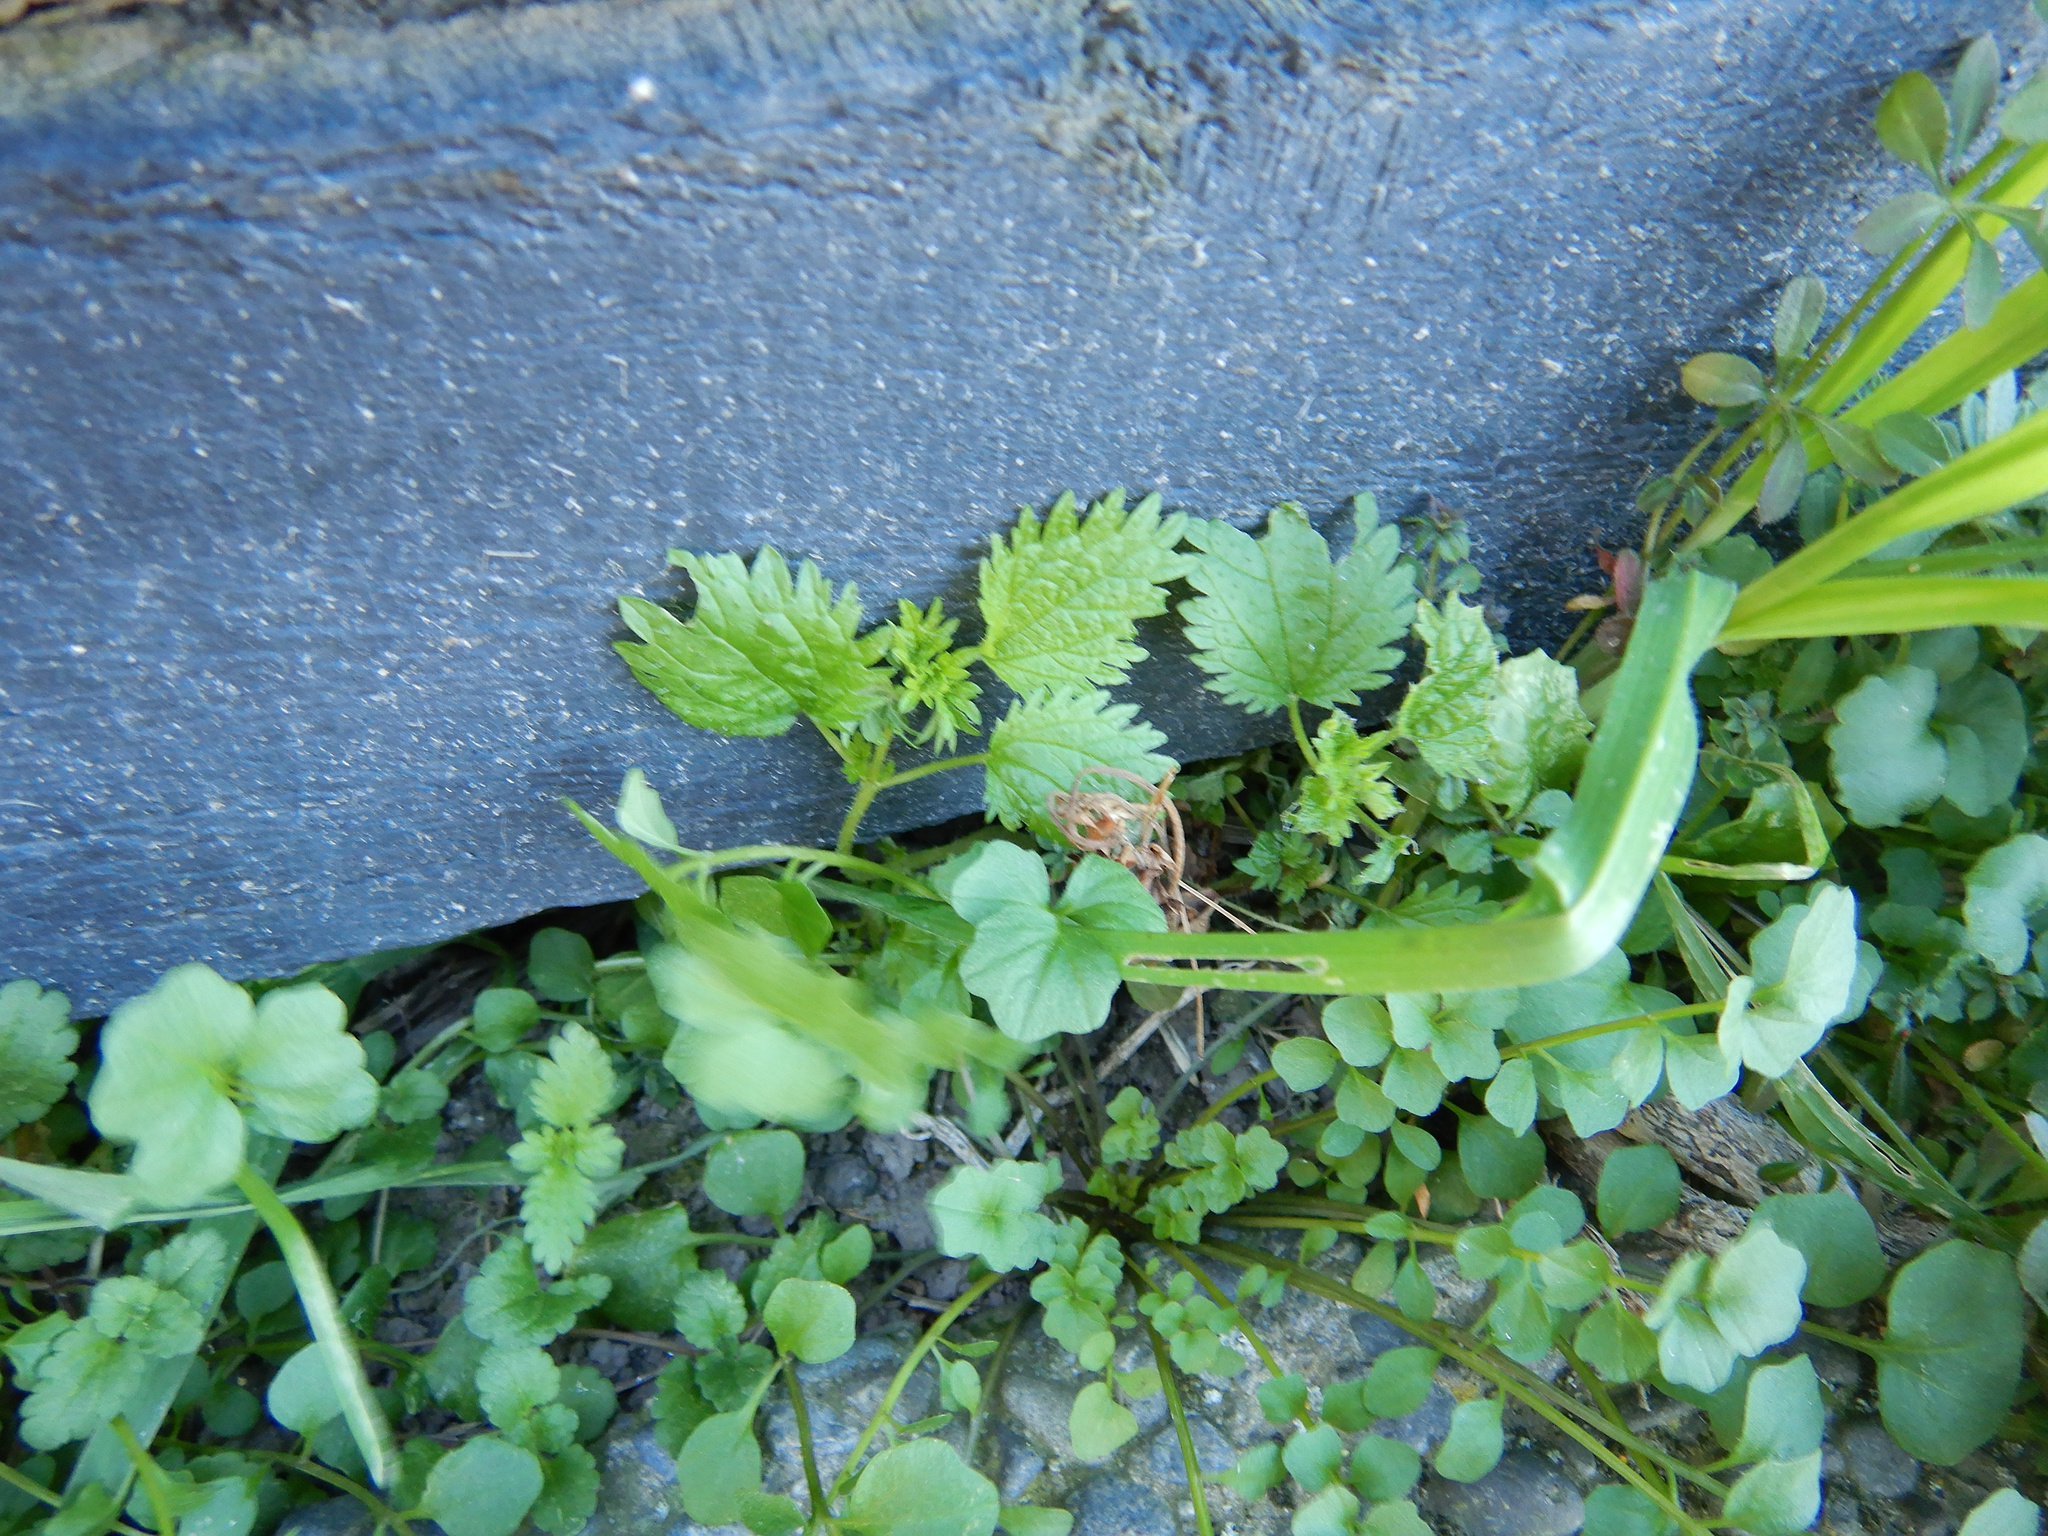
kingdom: Plantae
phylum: Tracheophyta
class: Magnoliopsida
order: Rosales
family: Urticaceae
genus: Urtica
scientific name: Urtica urens
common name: Dwarf nettle
